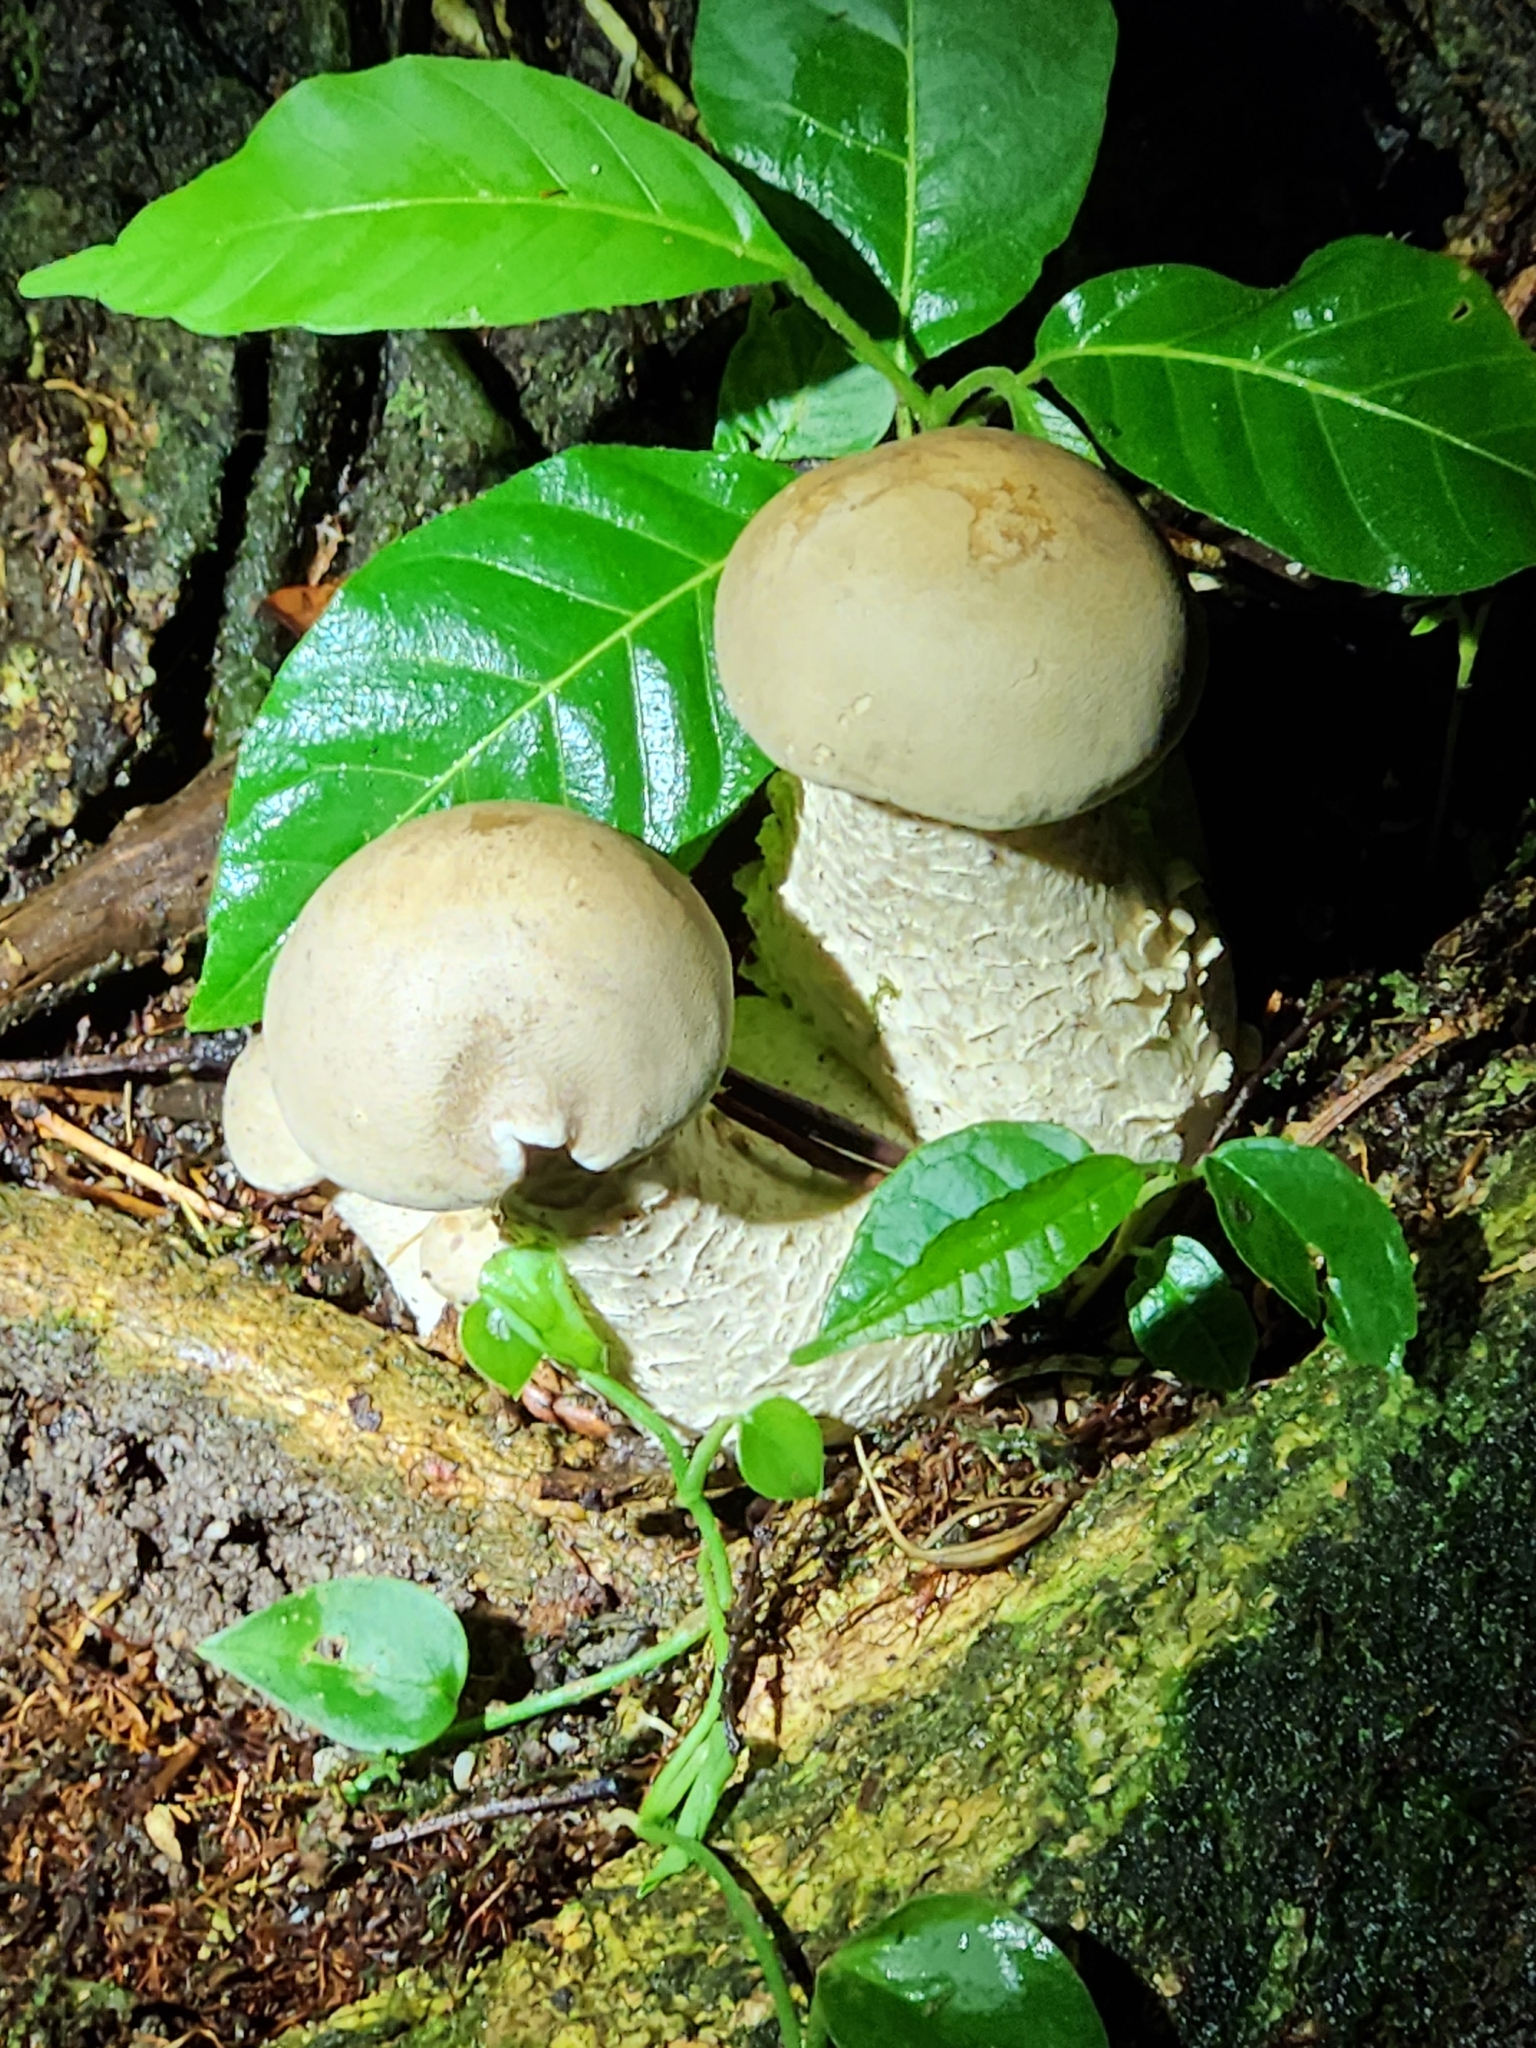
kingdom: Fungi
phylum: Basidiomycota
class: Agaricomycetes
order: Agaricales
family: Callistosporiaceae
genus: Macrocybe
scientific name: Macrocybe titans
